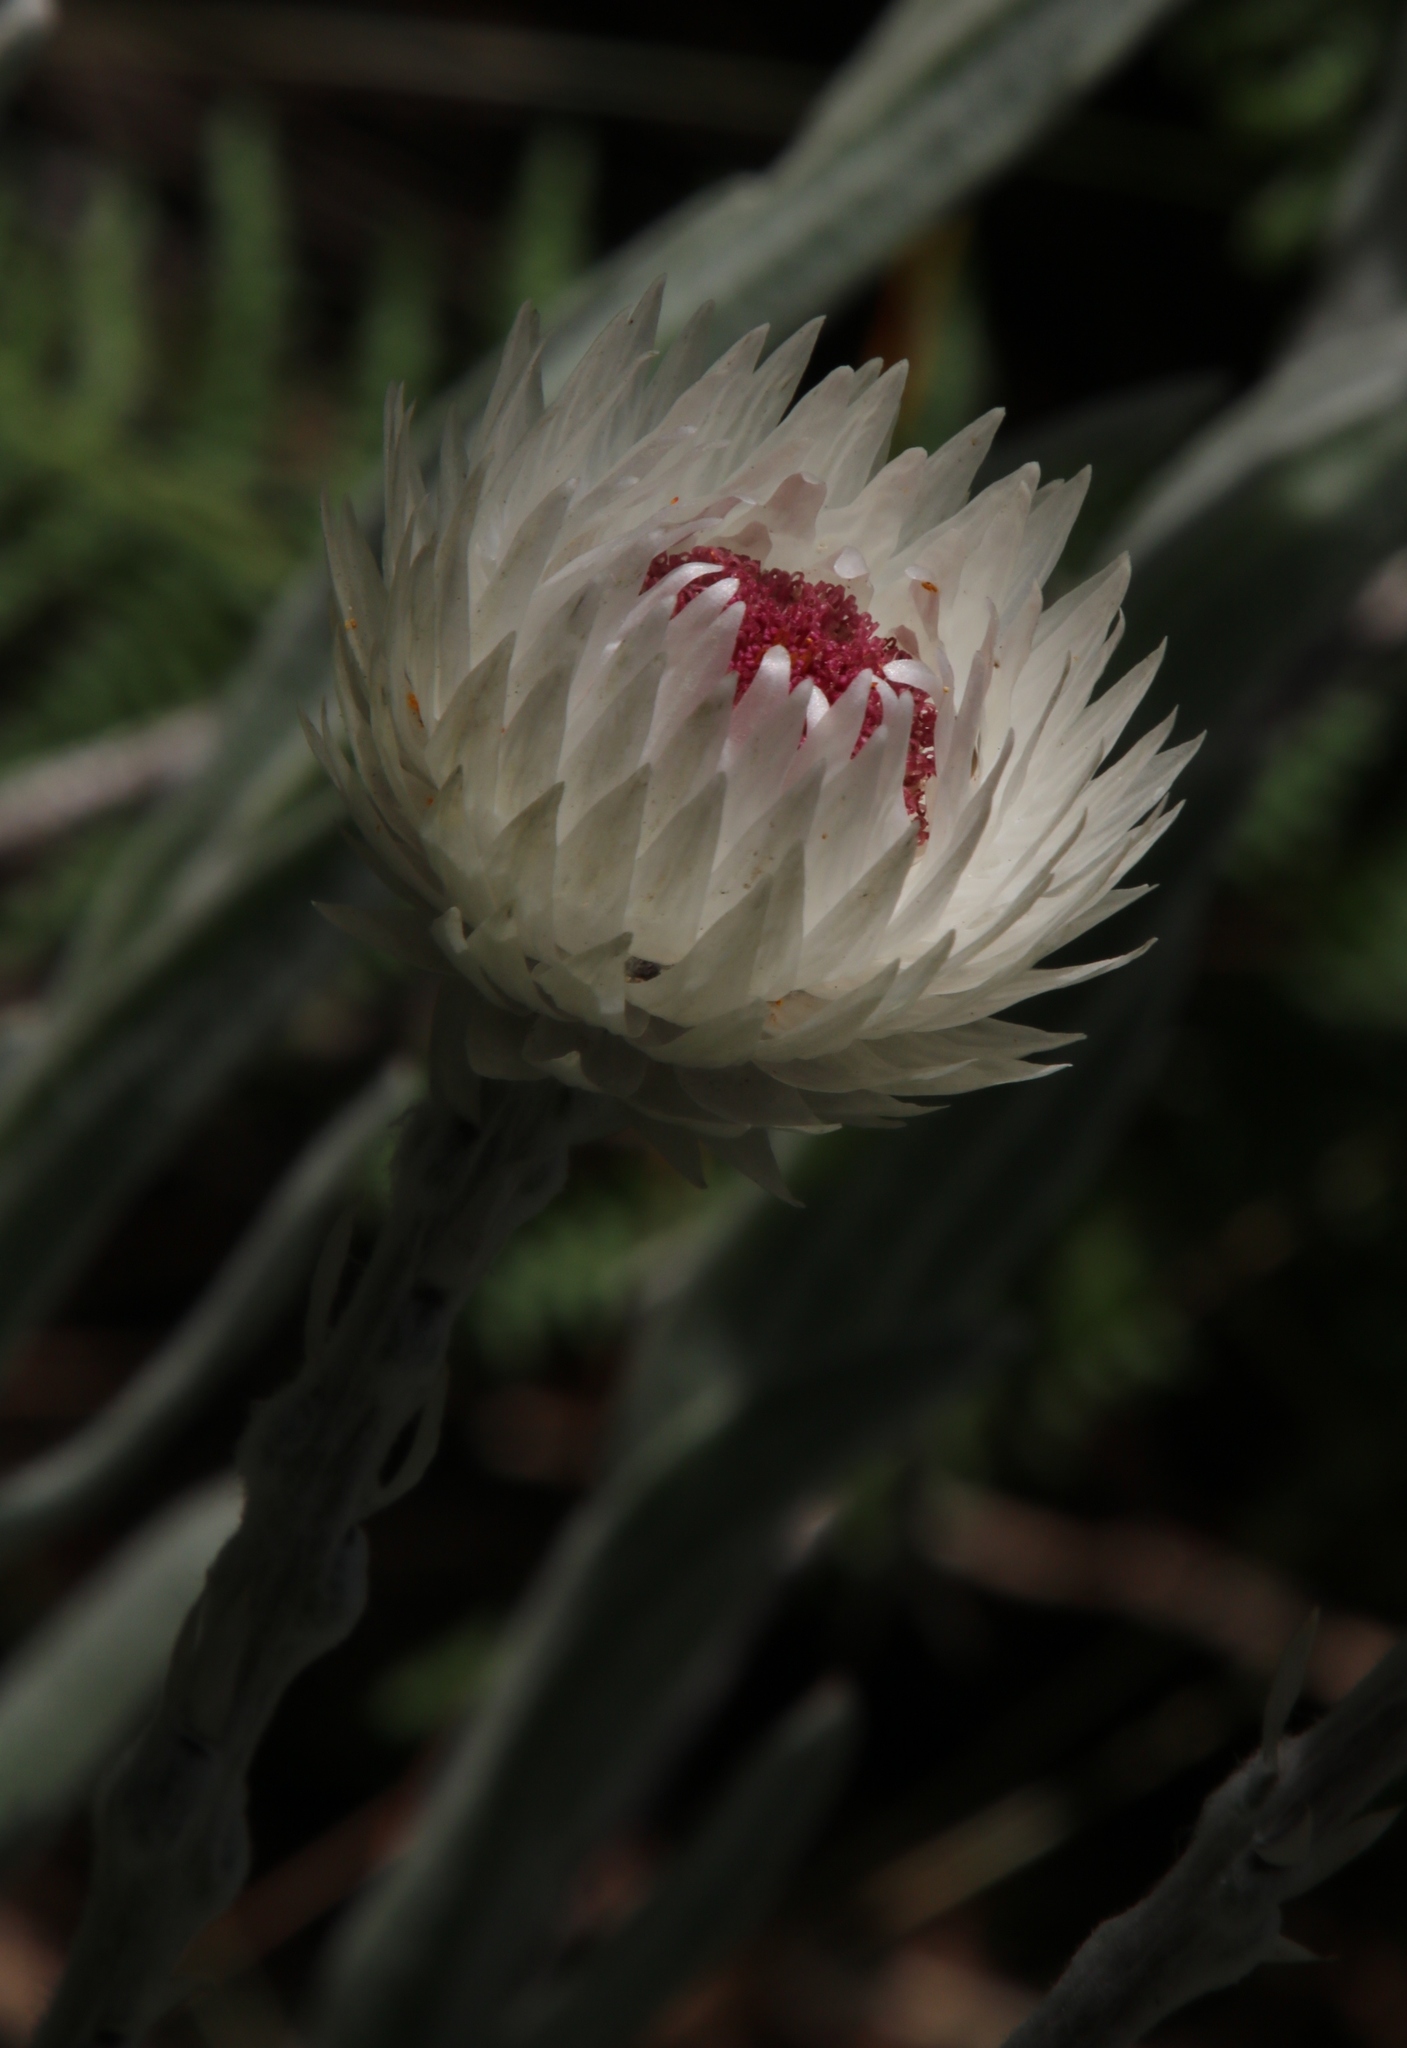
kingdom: Plantae
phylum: Tracheophyta
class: Magnoliopsida
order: Asterales
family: Asteraceae
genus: Syncarpha
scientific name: Syncarpha vestita
